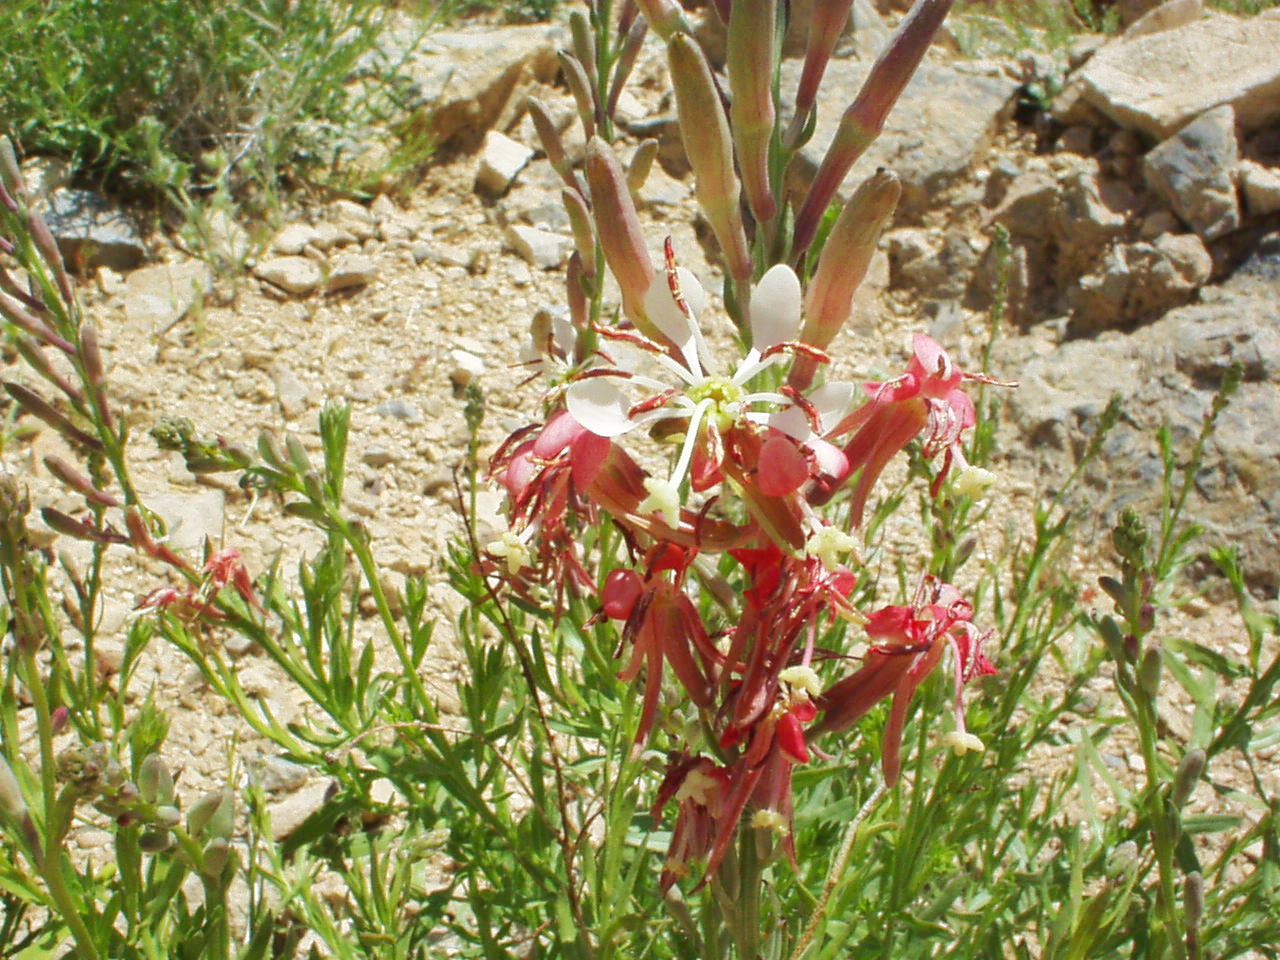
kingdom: Plantae
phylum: Tracheophyta
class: Magnoliopsida
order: Myrtales
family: Onagraceae
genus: Oenothera
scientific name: Oenothera suffrutescens
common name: Scarlet beeblossom
